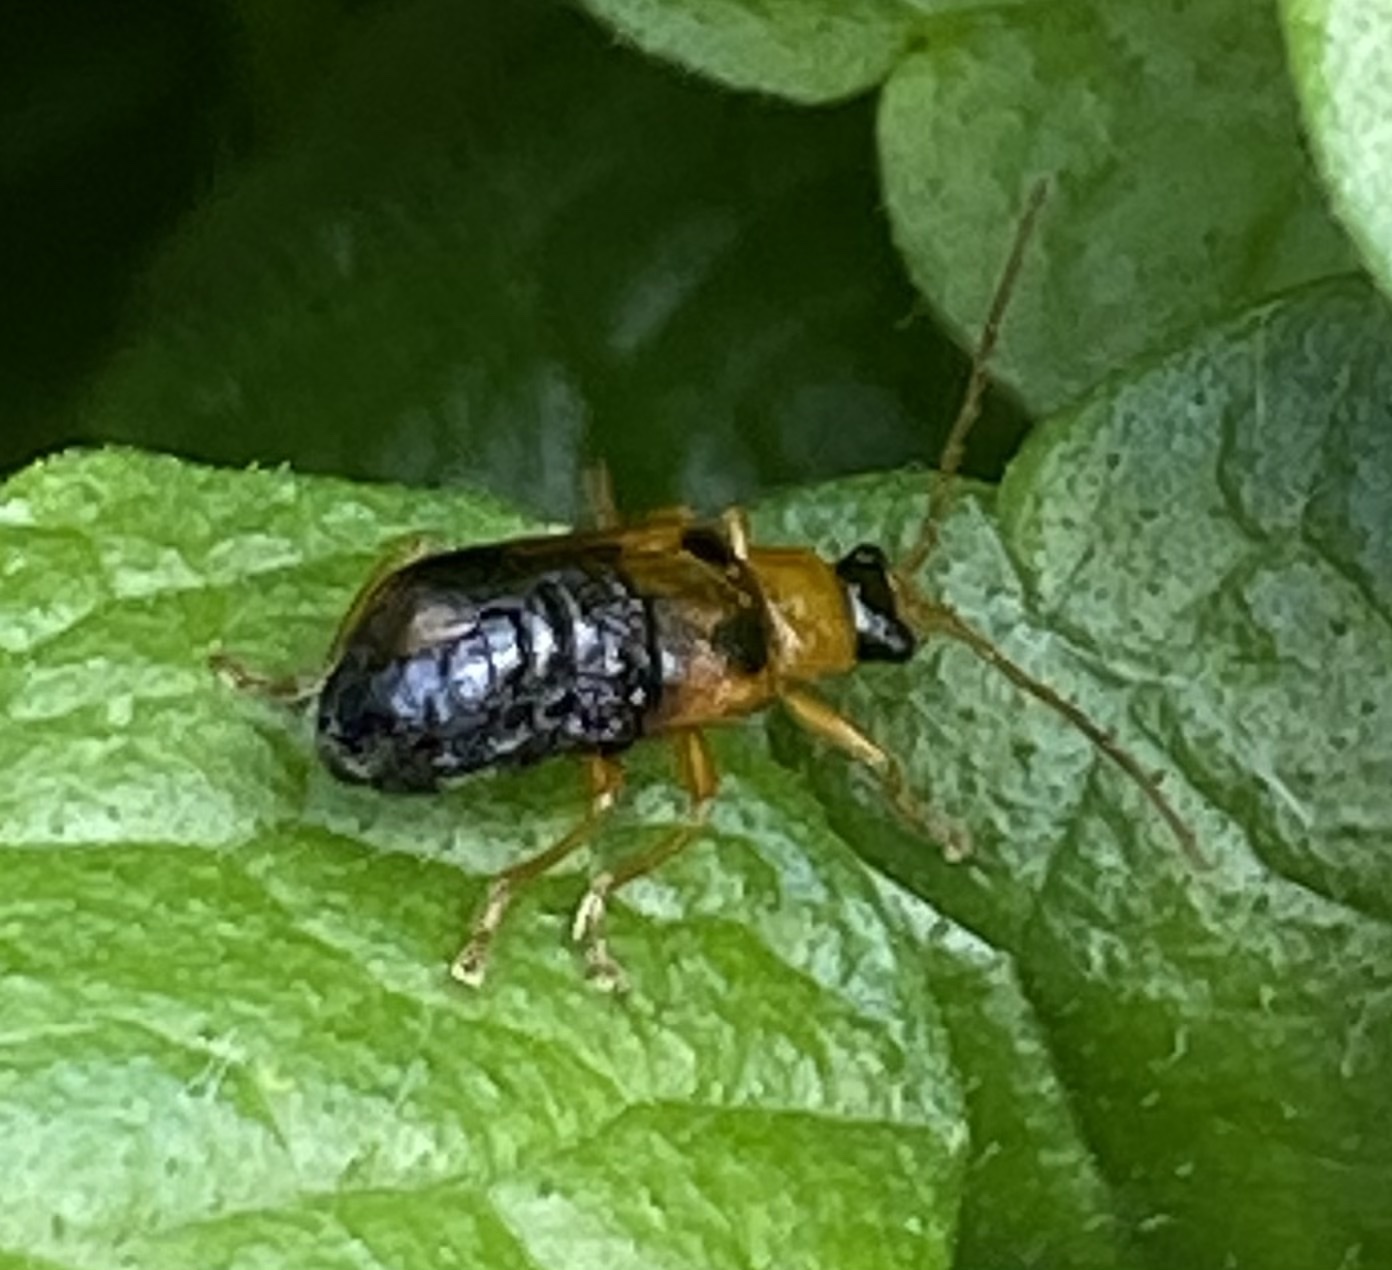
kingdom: Animalia
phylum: Arthropoda
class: Insecta
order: Coleoptera
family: Chrysomelidae
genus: Phyllobrotica
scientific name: Phyllobrotica quadrimaculata
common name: Skullcap leaf beetle
